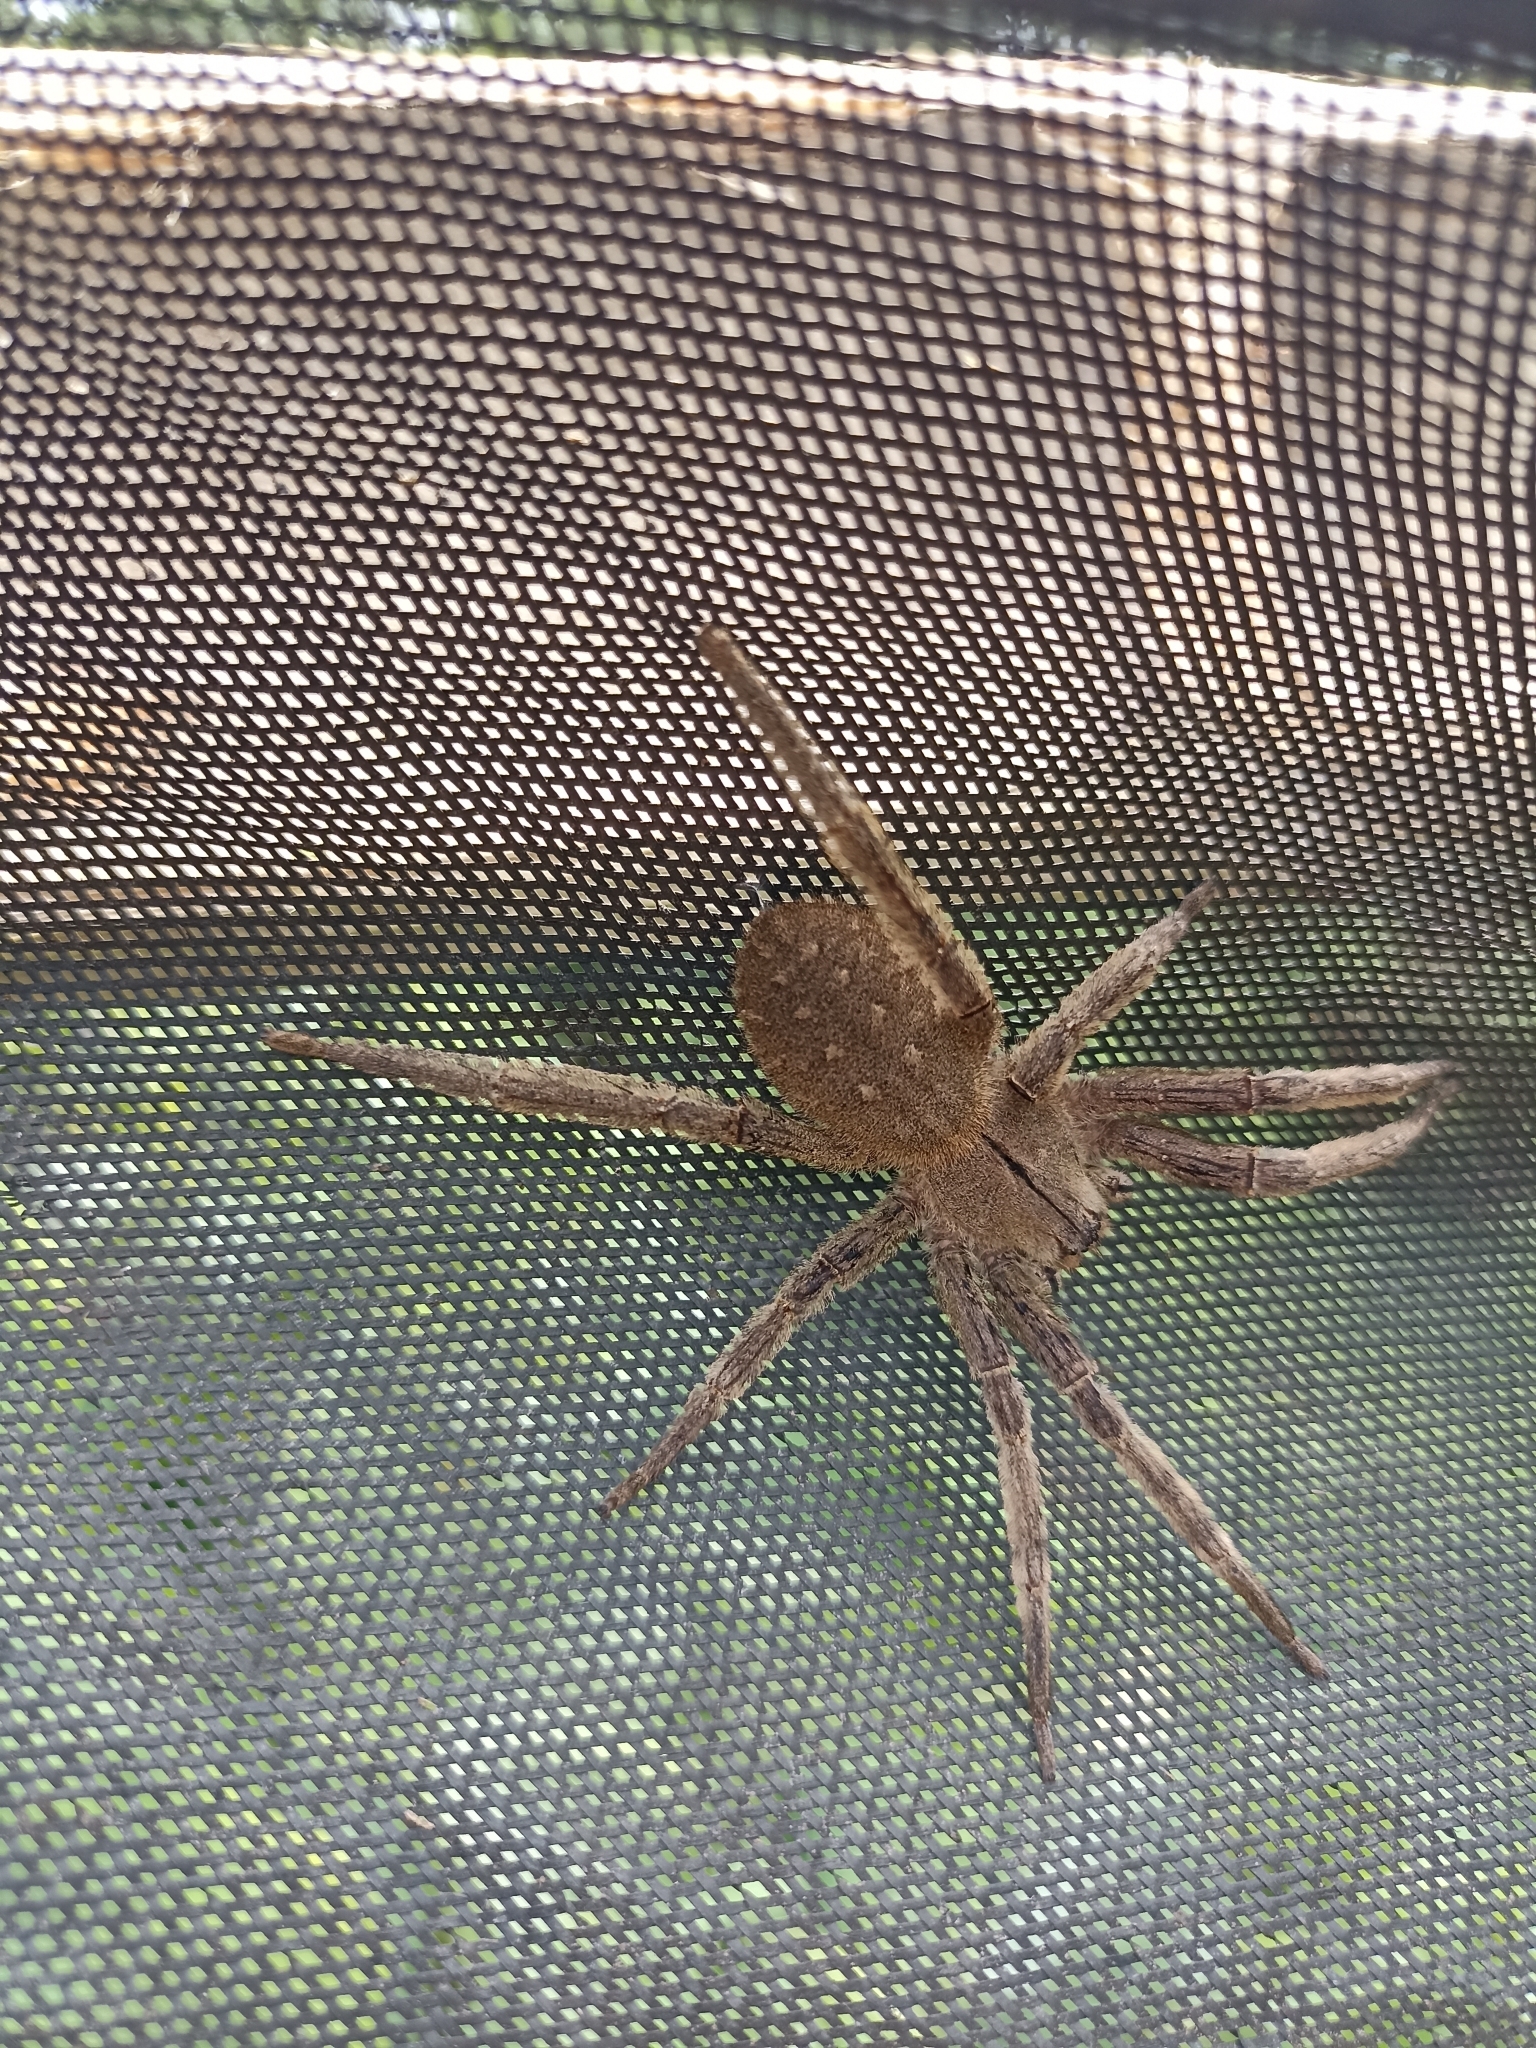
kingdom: Animalia
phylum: Arthropoda
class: Arachnida
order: Araneae
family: Ctenidae
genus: Phoneutria
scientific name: Phoneutria depilata
